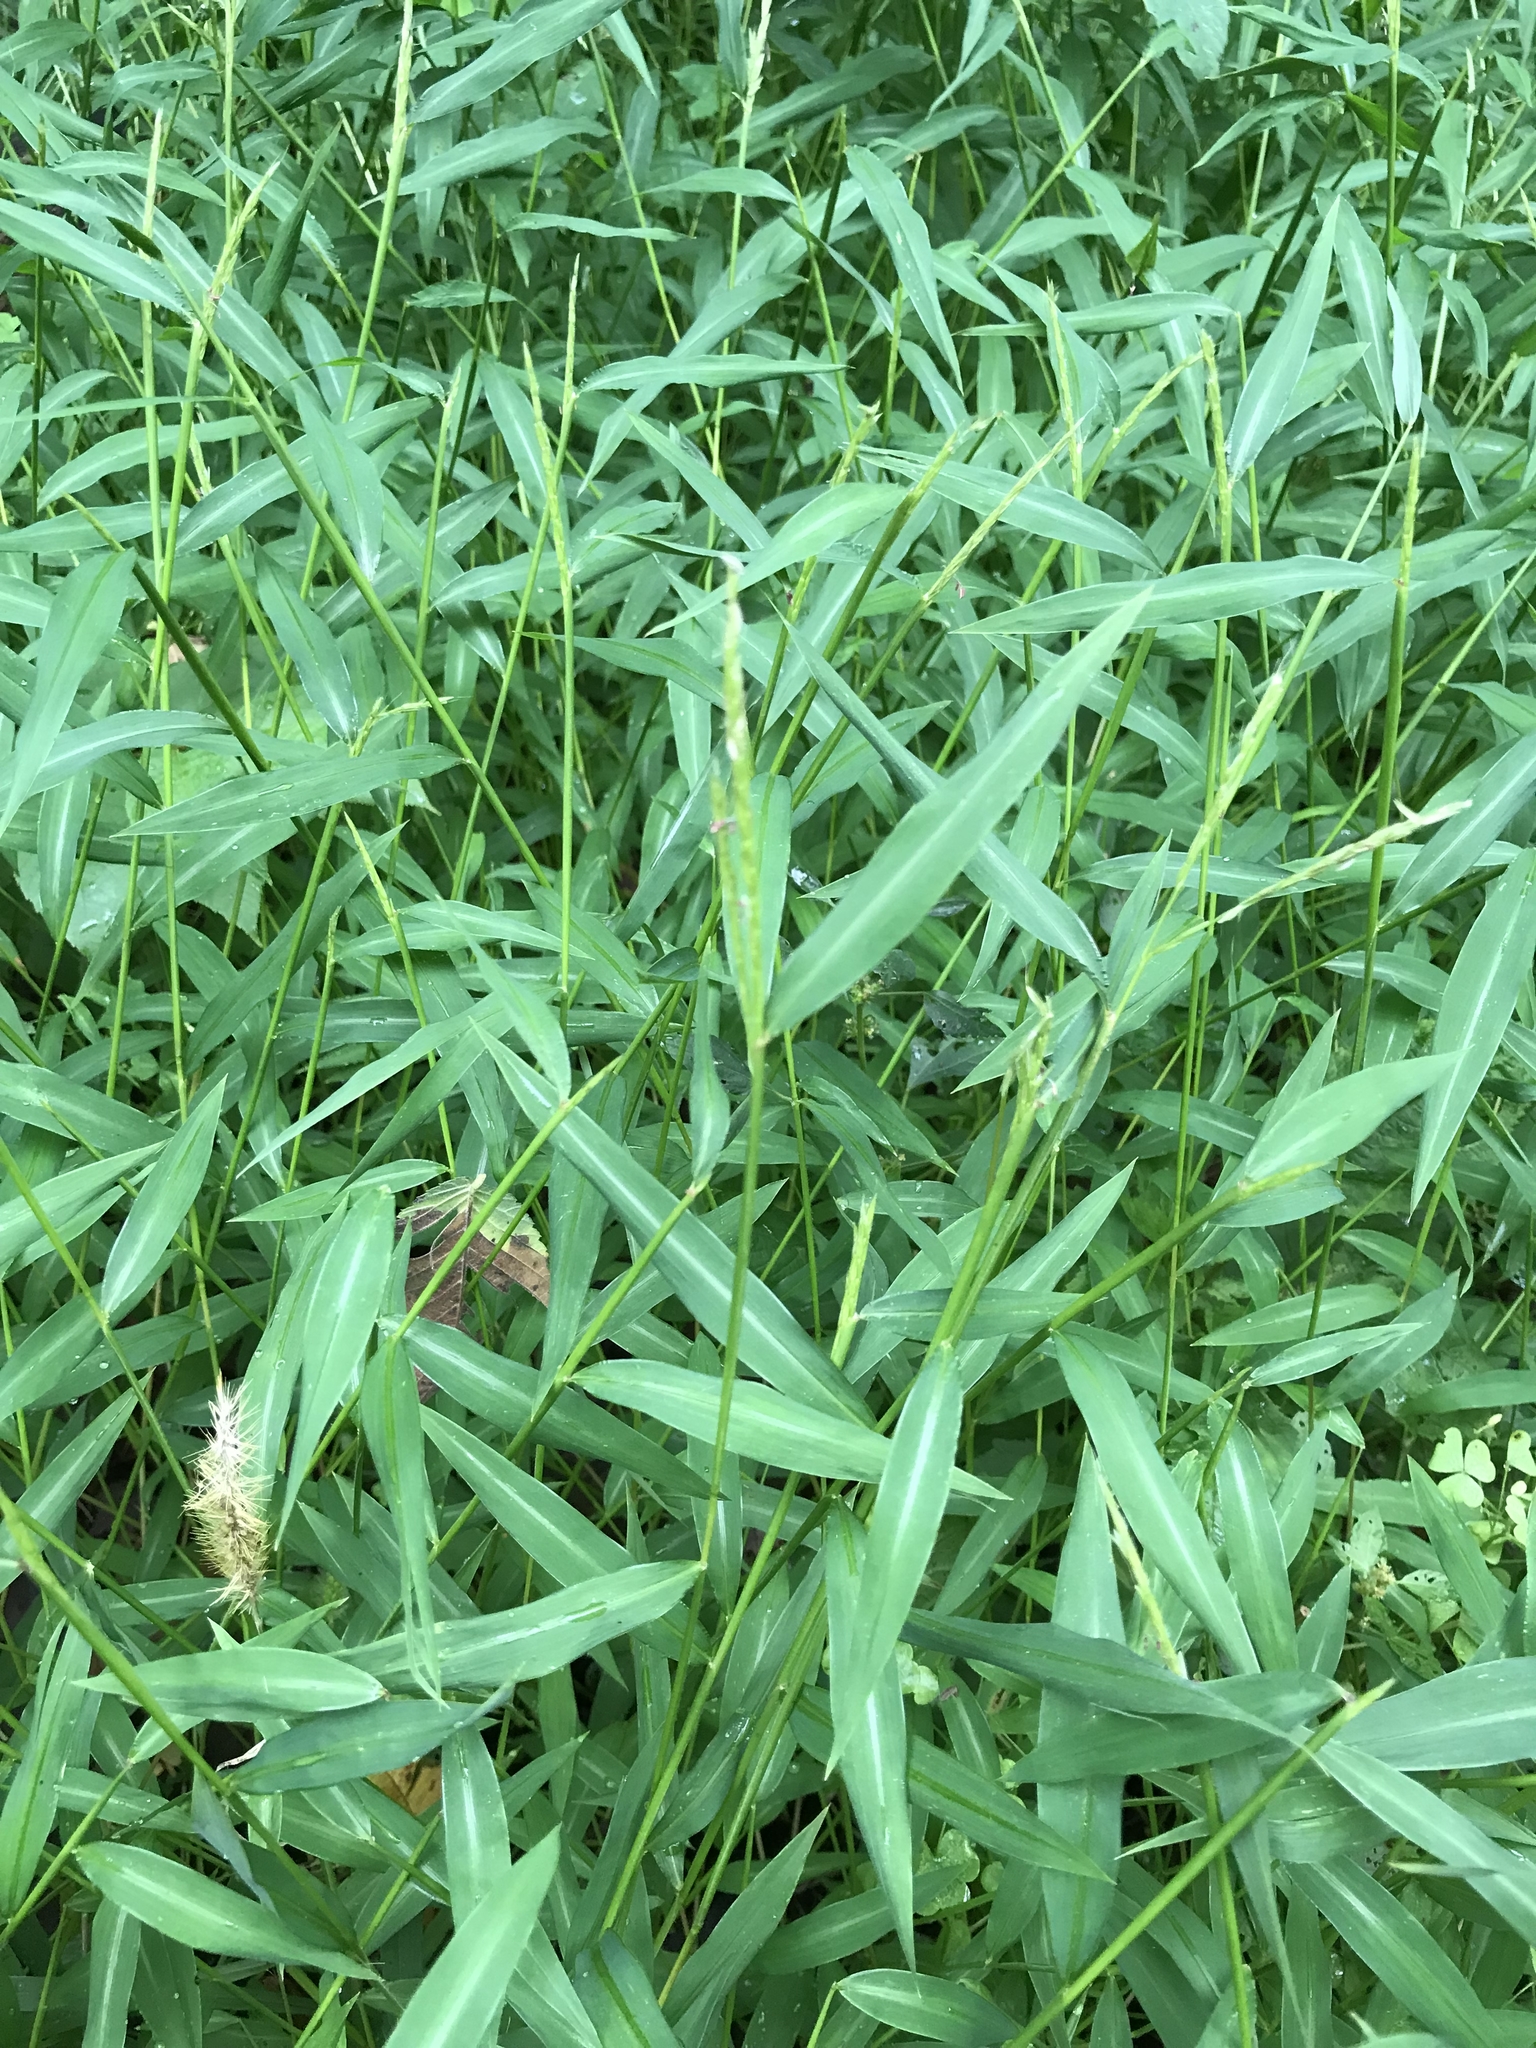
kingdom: Plantae
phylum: Tracheophyta
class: Liliopsida
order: Poales
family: Poaceae
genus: Microstegium
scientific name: Microstegium vimineum
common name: Japanese stiltgrass
